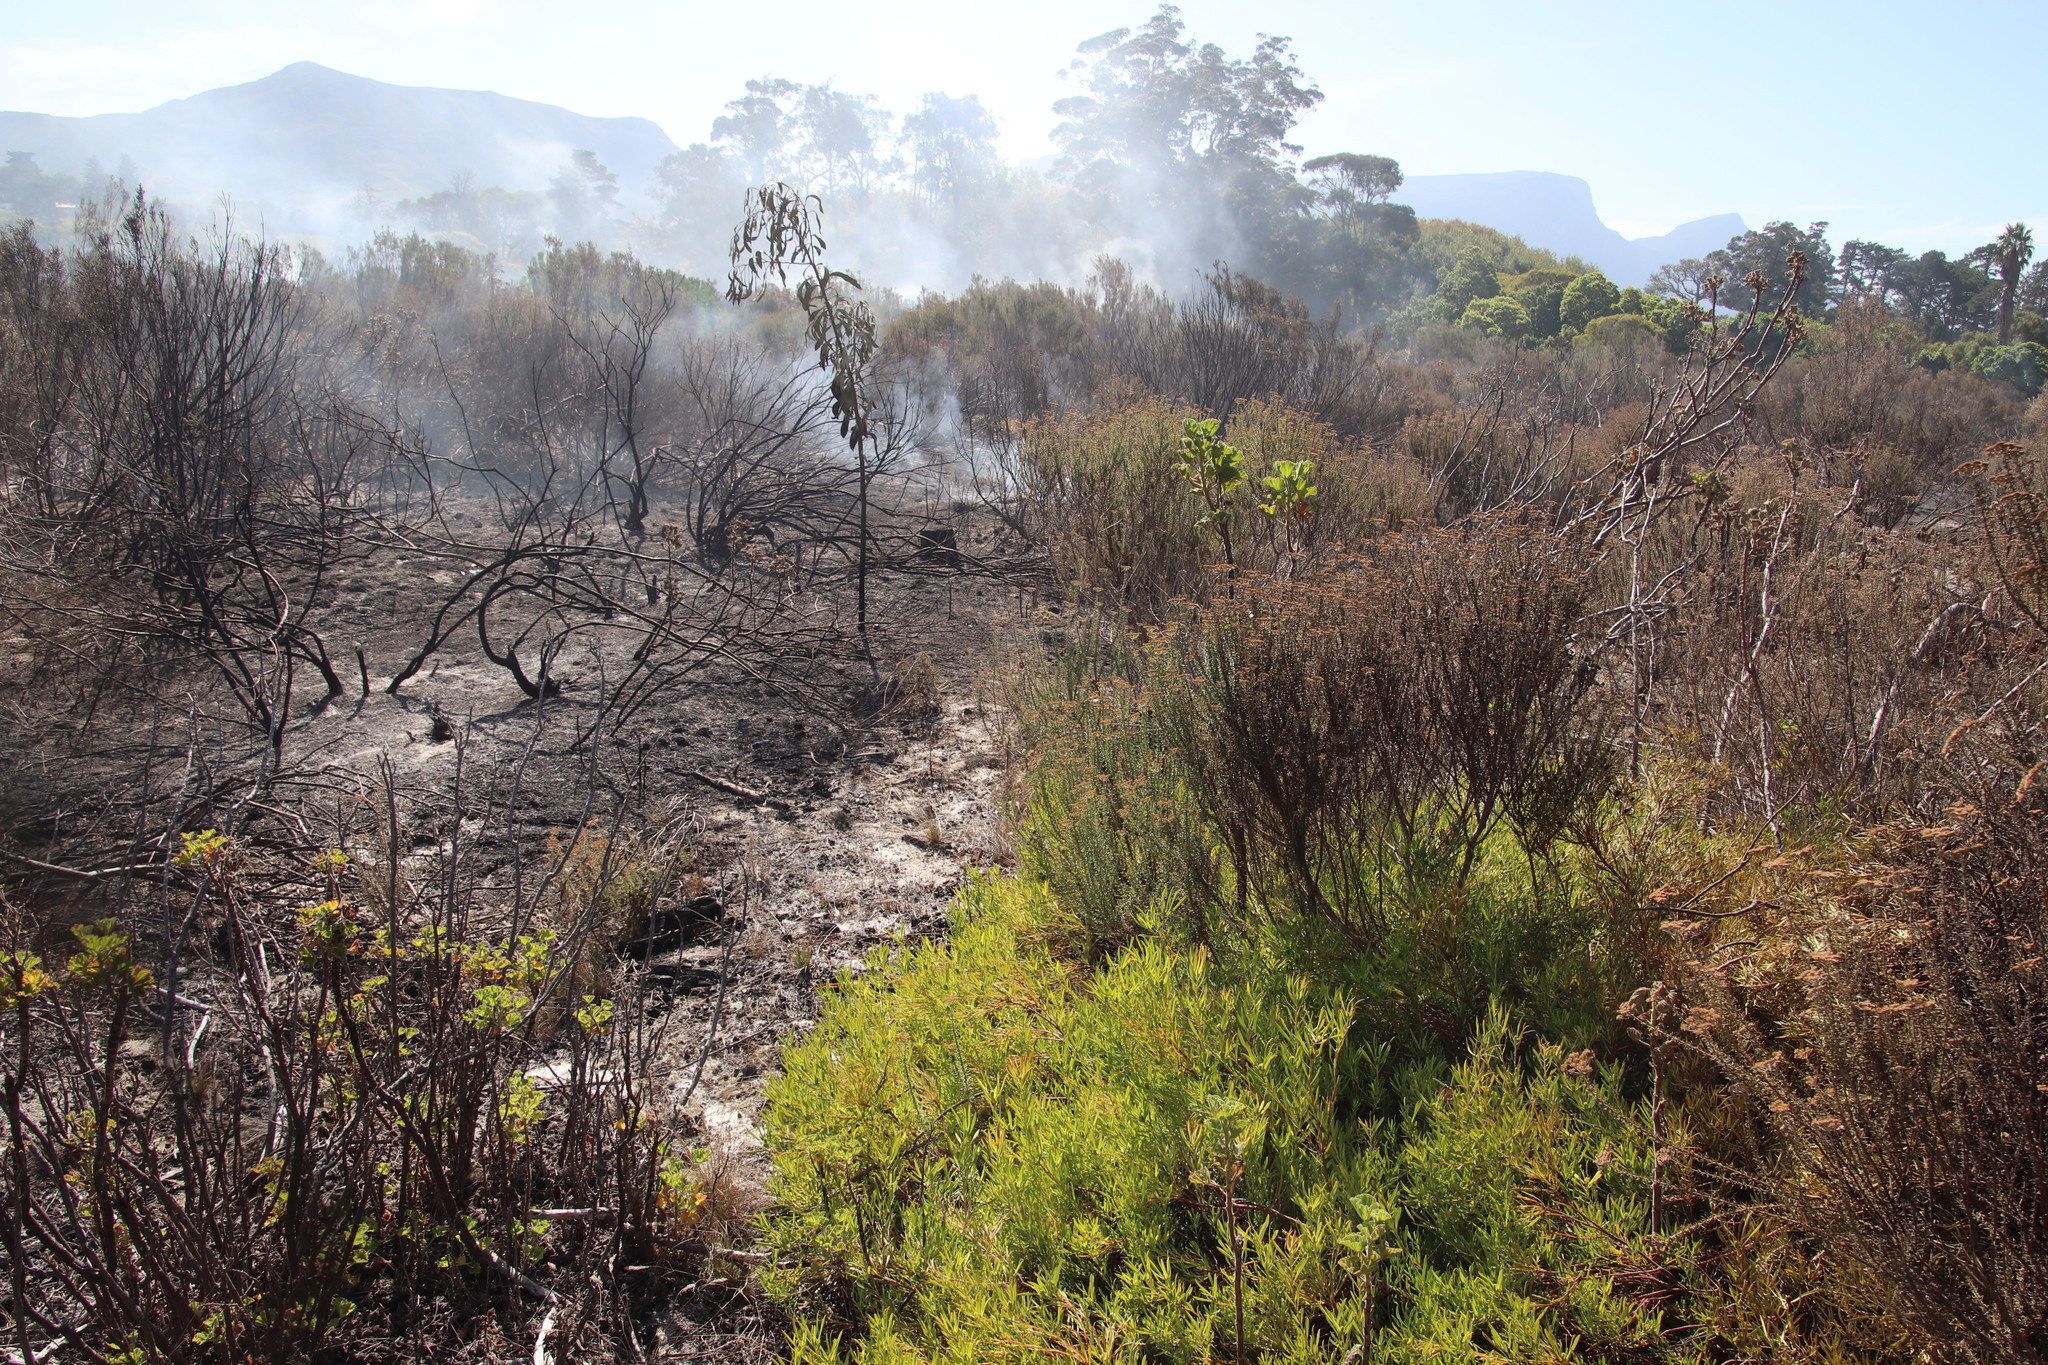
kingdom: Plantae
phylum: Tracheophyta
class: Magnoliopsida
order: Proteales
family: Proteaceae
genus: Leucadendron
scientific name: Leucadendron salignum
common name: Common sunshine conebush
